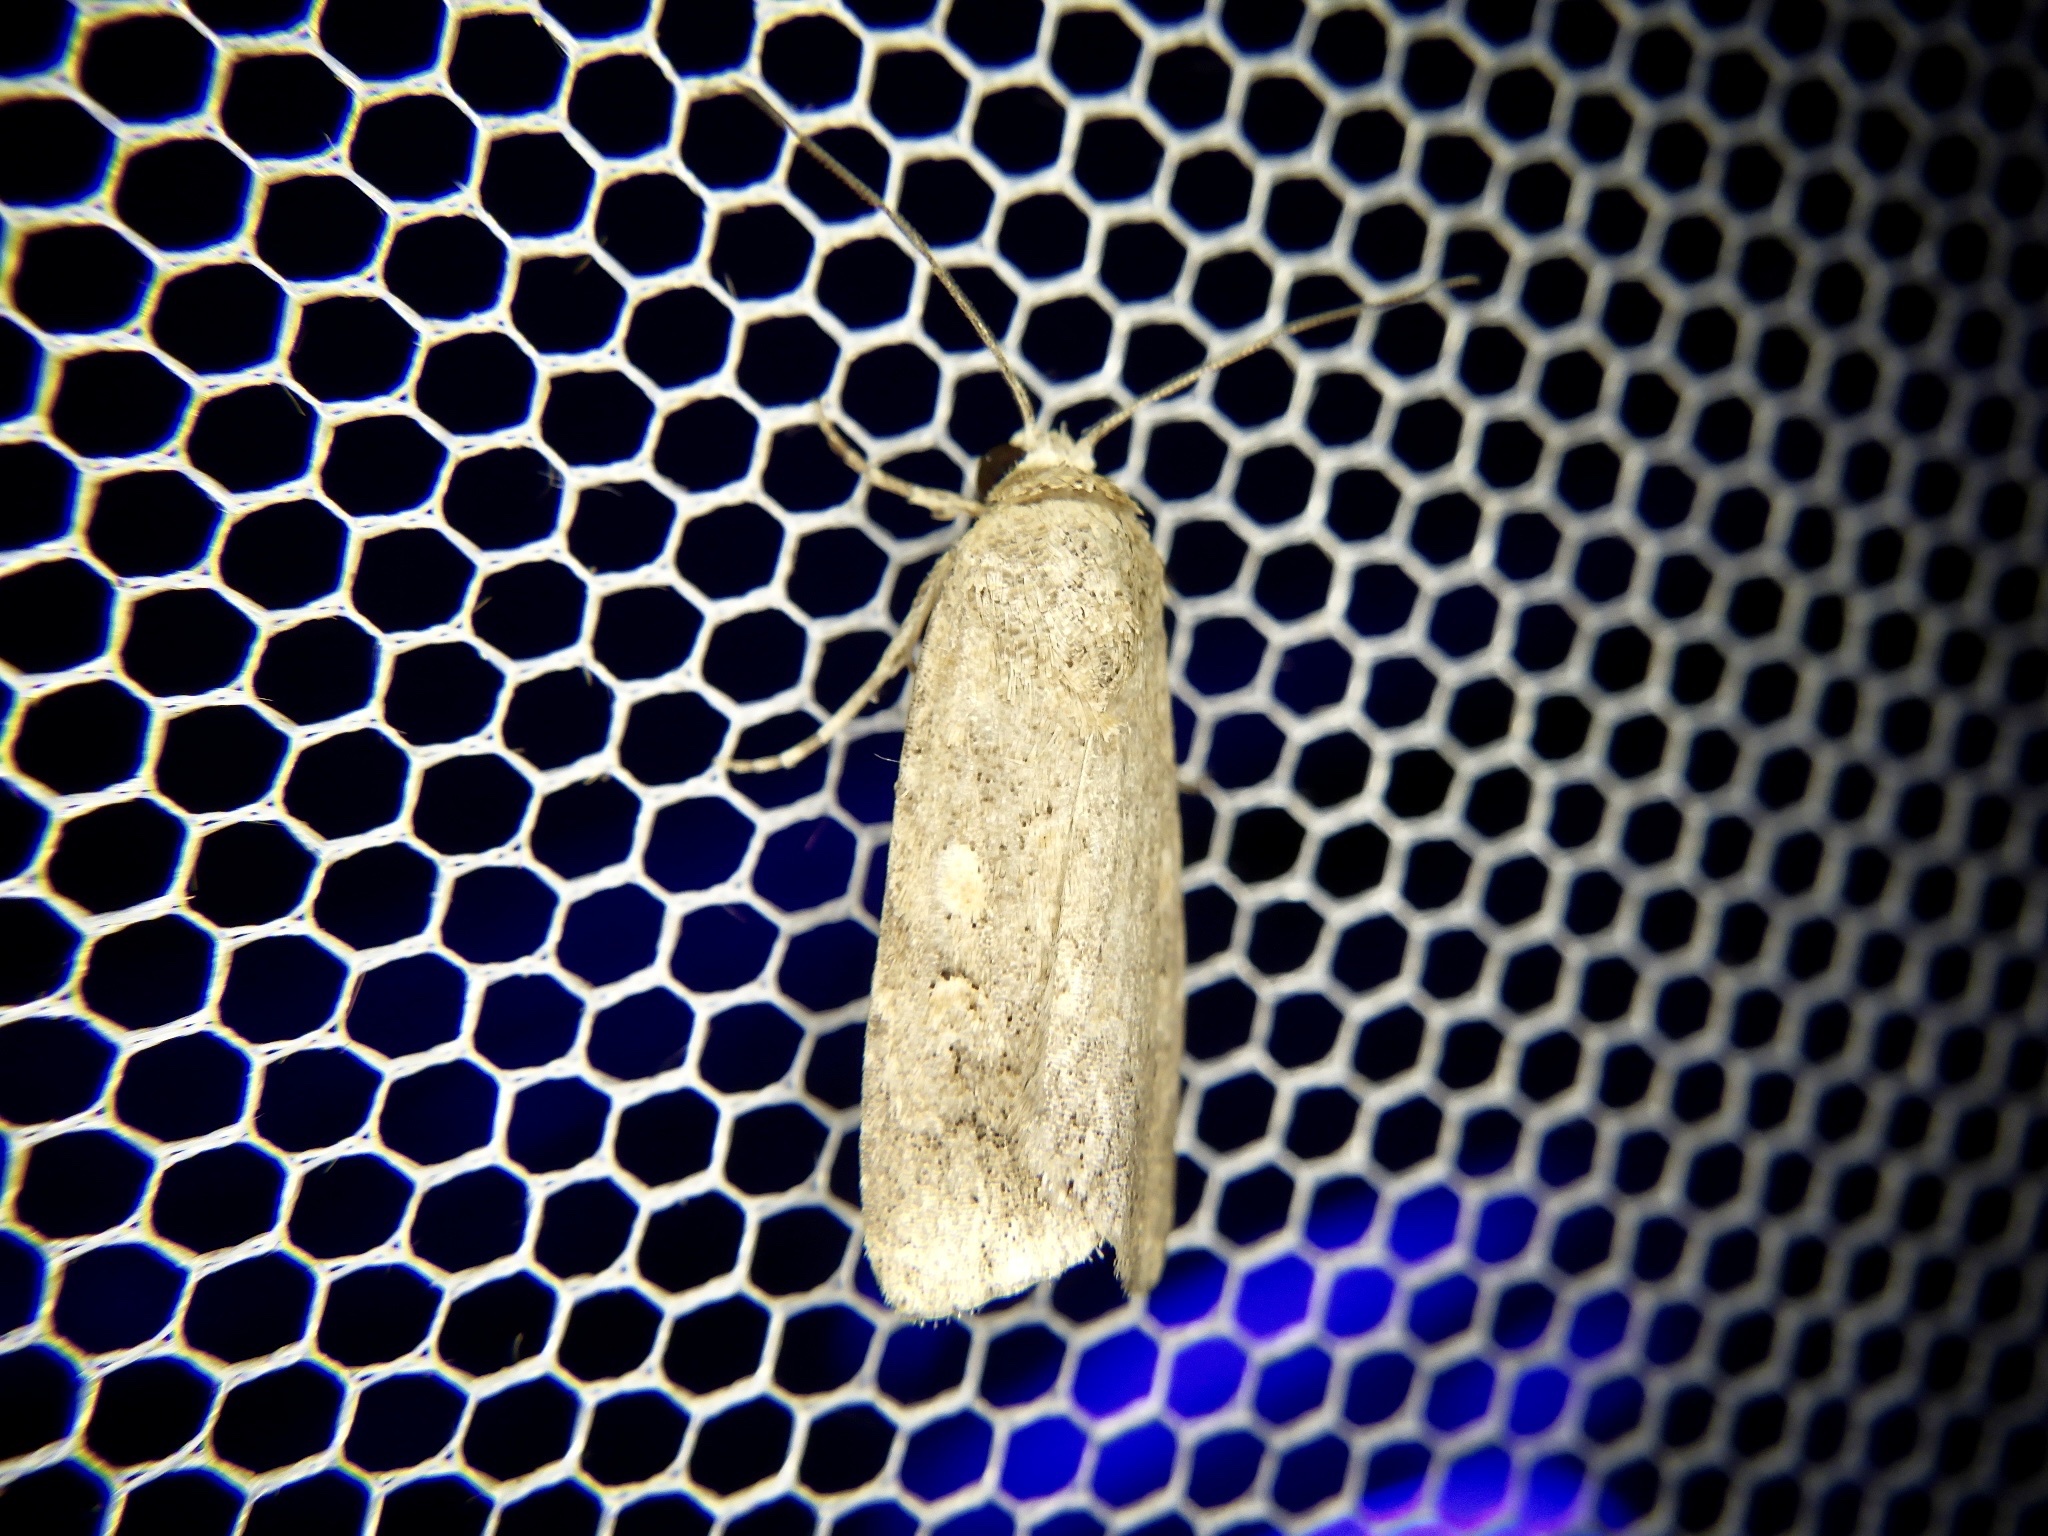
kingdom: Animalia
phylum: Arthropoda
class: Insecta
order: Lepidoptera
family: Noctuidae
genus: Spodoptera
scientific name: Spodoptera exigua
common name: Beet armyworm
